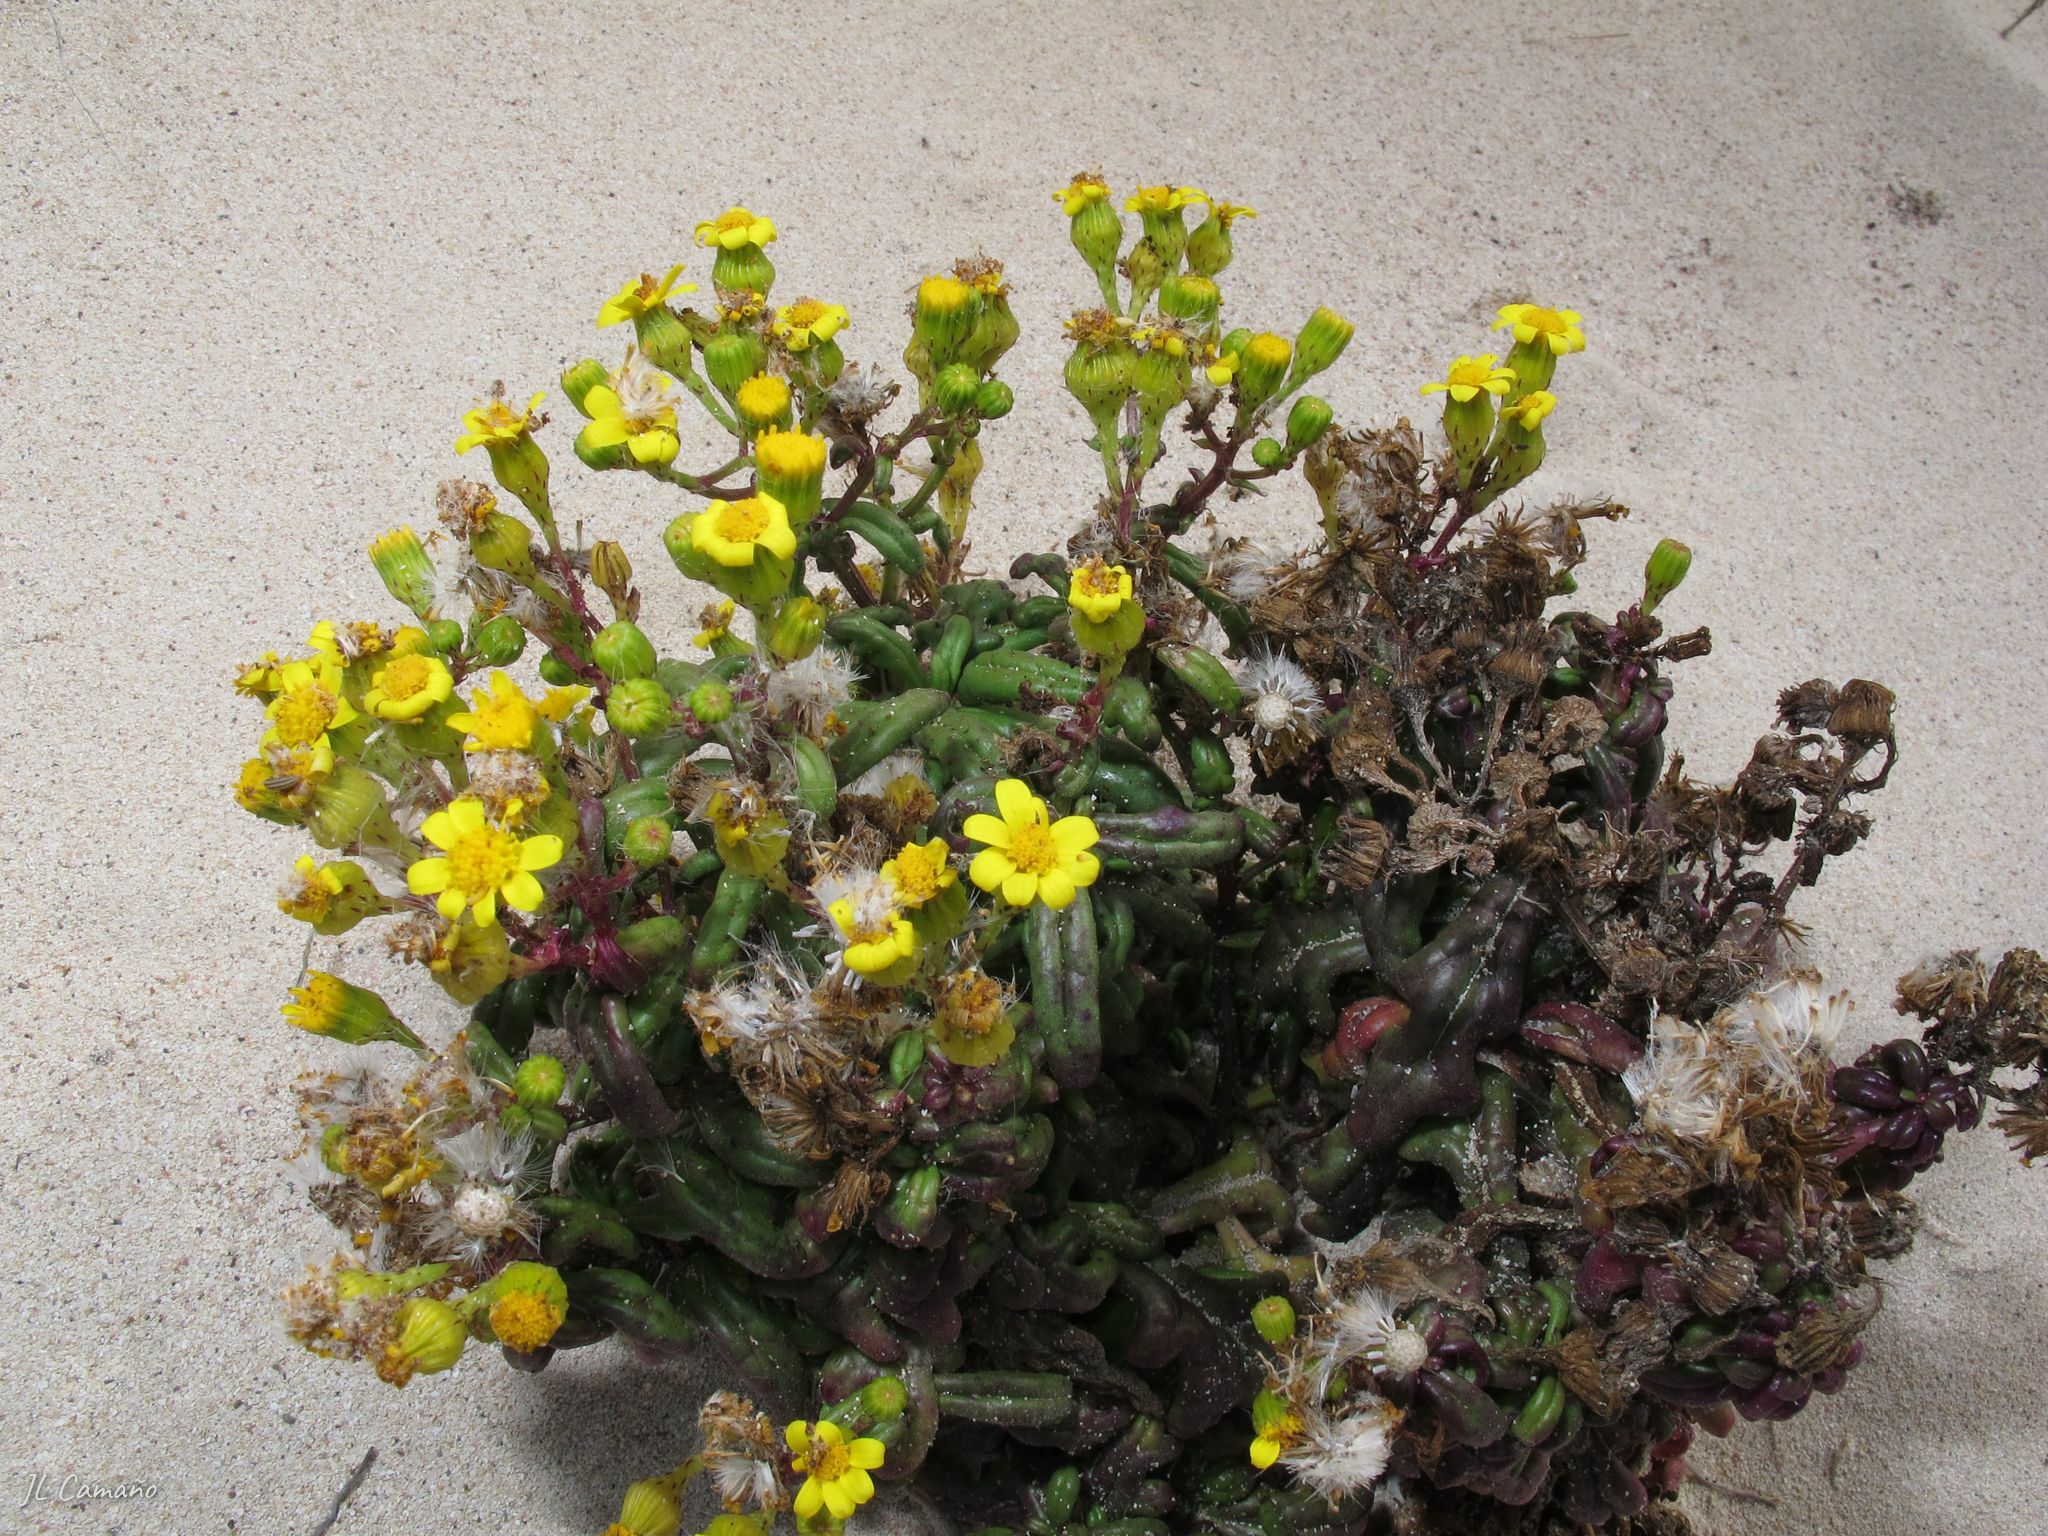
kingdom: Plantae
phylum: Tracheophyta
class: Magnoliopsida
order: Asterales
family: Asteraceae
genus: Senecio
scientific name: Senecio leucanthemifolius
